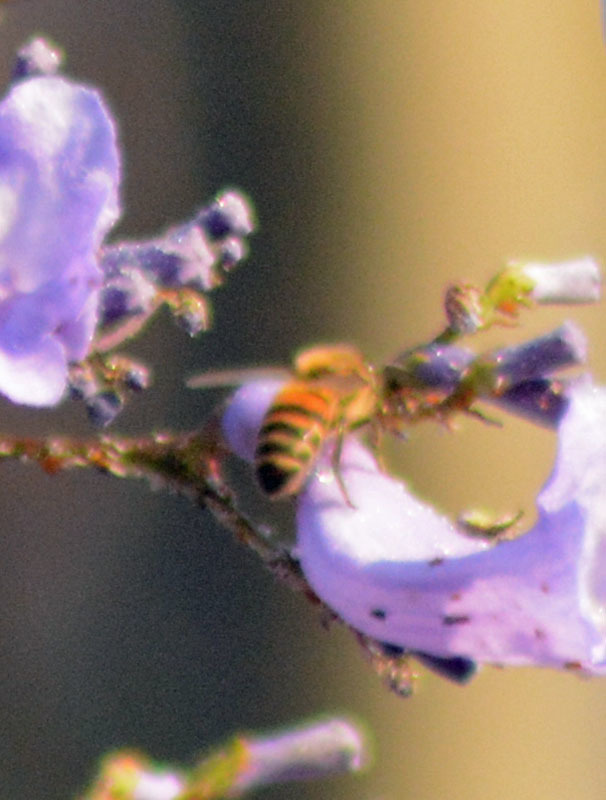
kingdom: Animalia
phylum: Arthropoda
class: Insecta
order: Hymenoptera
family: Apidae
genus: Apis
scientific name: Apis mellifera
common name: Honey bee
